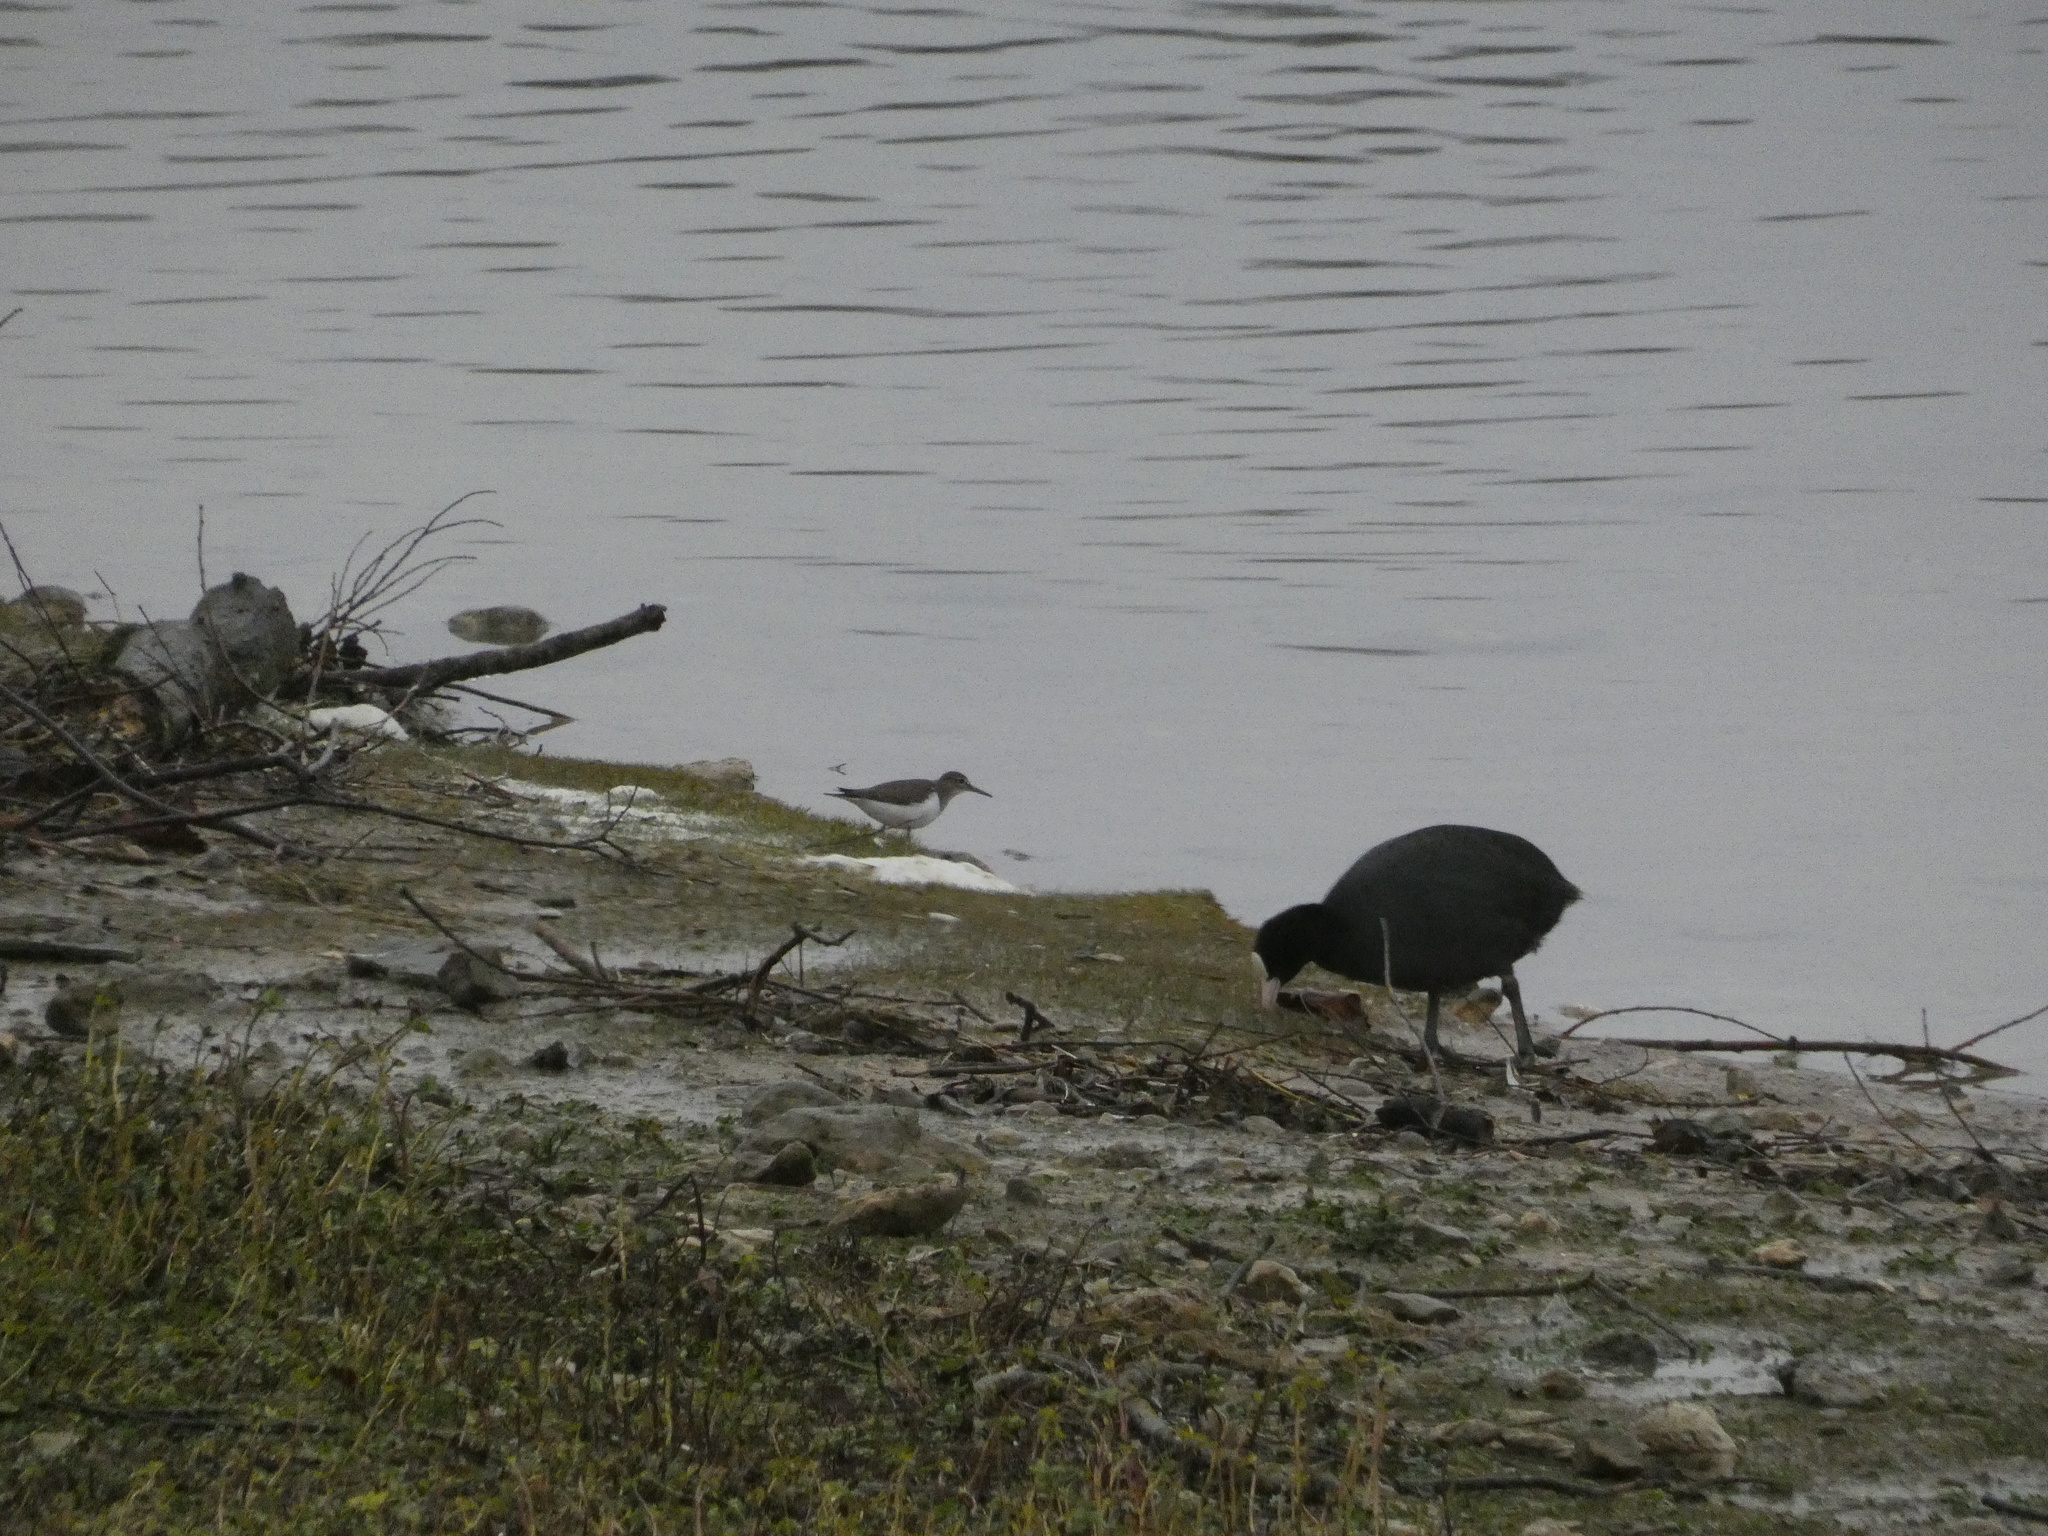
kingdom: Animalia
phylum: Chordata
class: Aves
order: Gruiformes
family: Rallidae
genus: Fulica
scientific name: Fulica atra
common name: Eurasian coot
